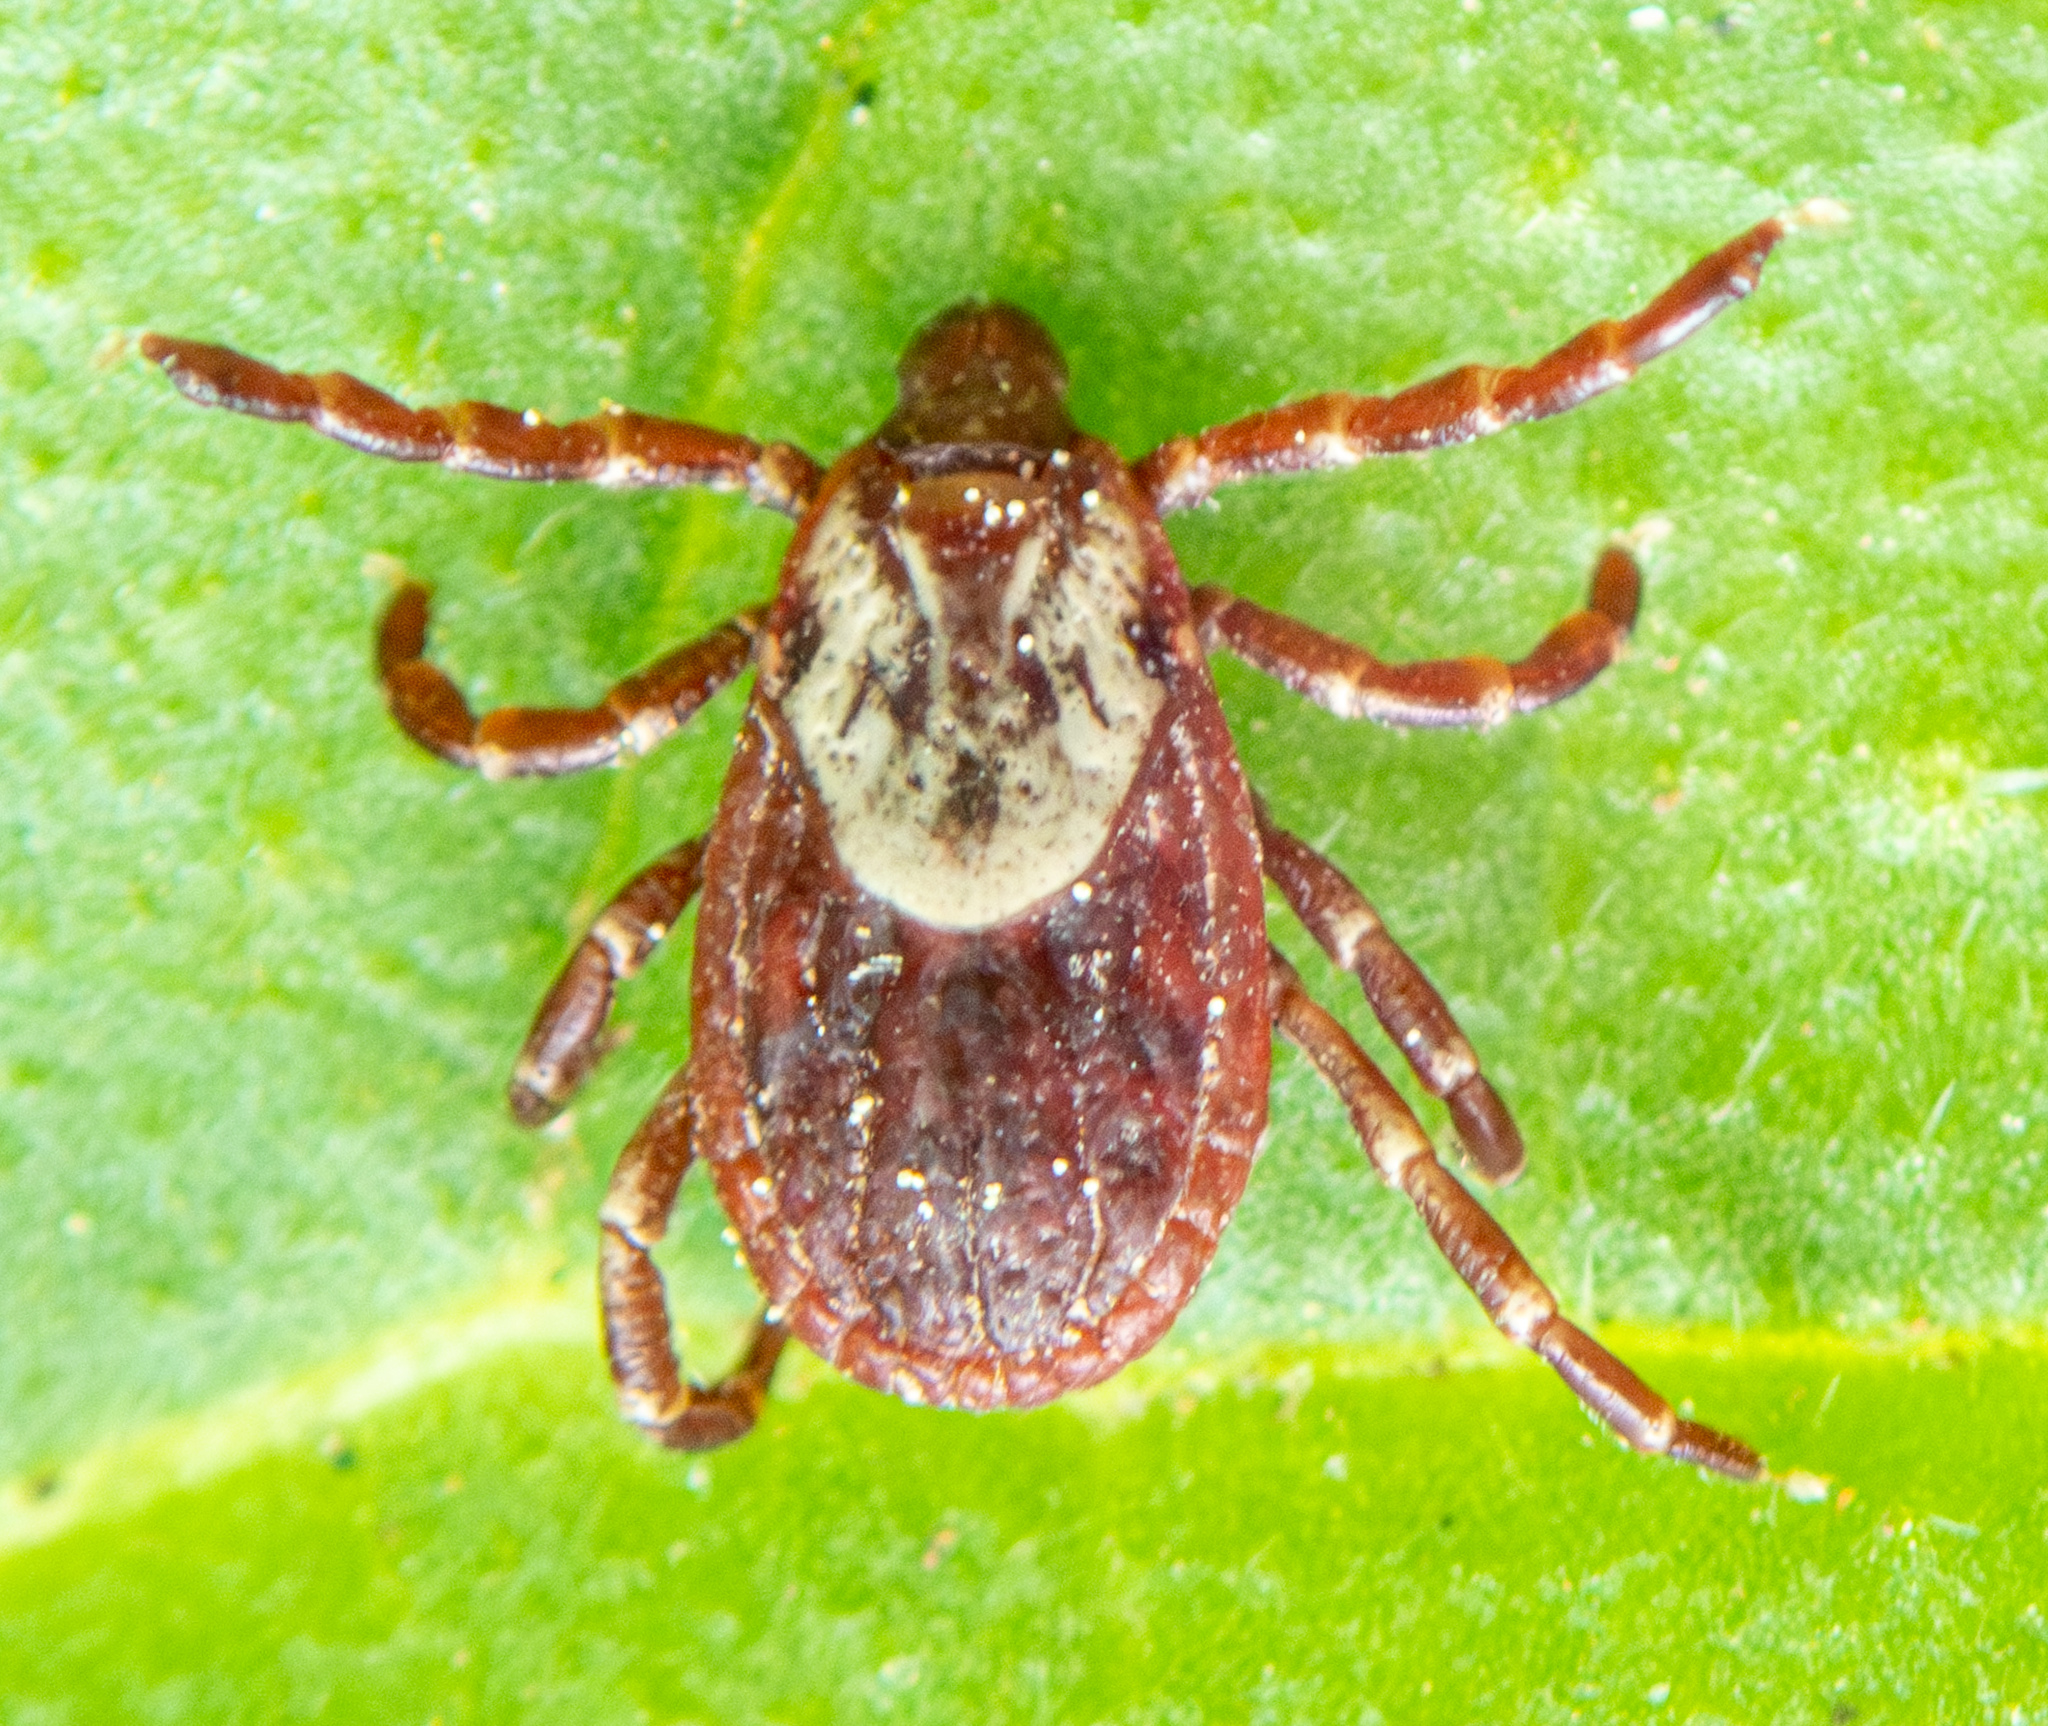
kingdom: Animalia
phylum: Arthropoda
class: Arachnida
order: Ixodida
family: Ixodidae
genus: Dermacentor
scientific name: Dermacentor variabilis
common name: American dog tick
